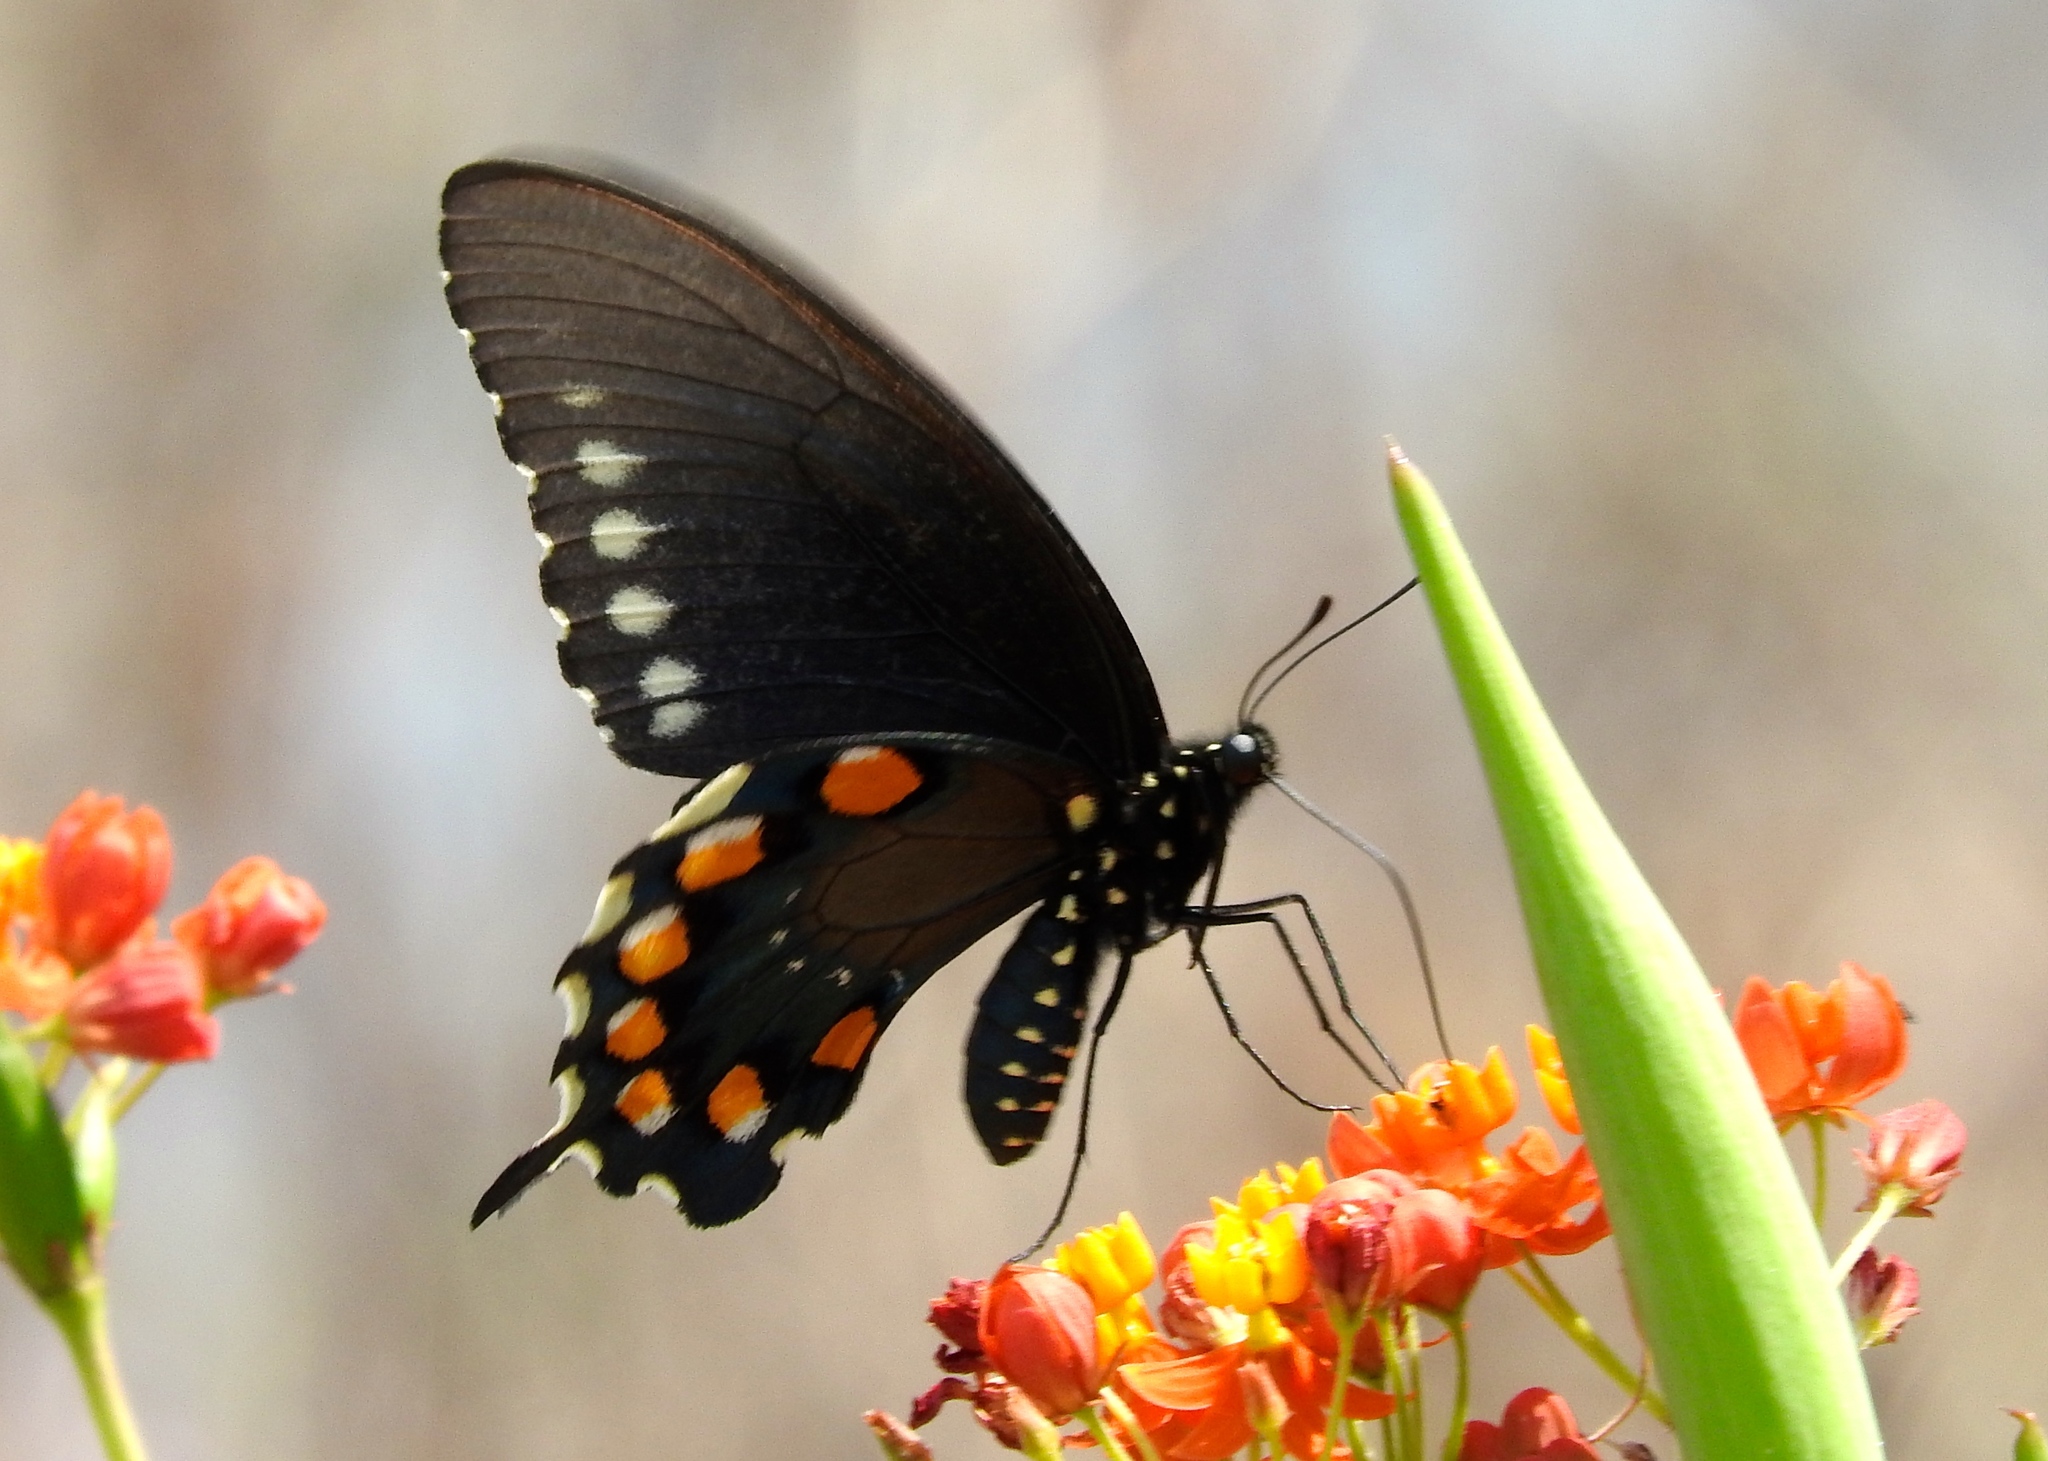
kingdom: Animalia
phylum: Arthropoda
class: Insecta
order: Lepidoptera
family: Papilionidae
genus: Battus
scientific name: Battus philenor
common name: Pipevine swallowtail
